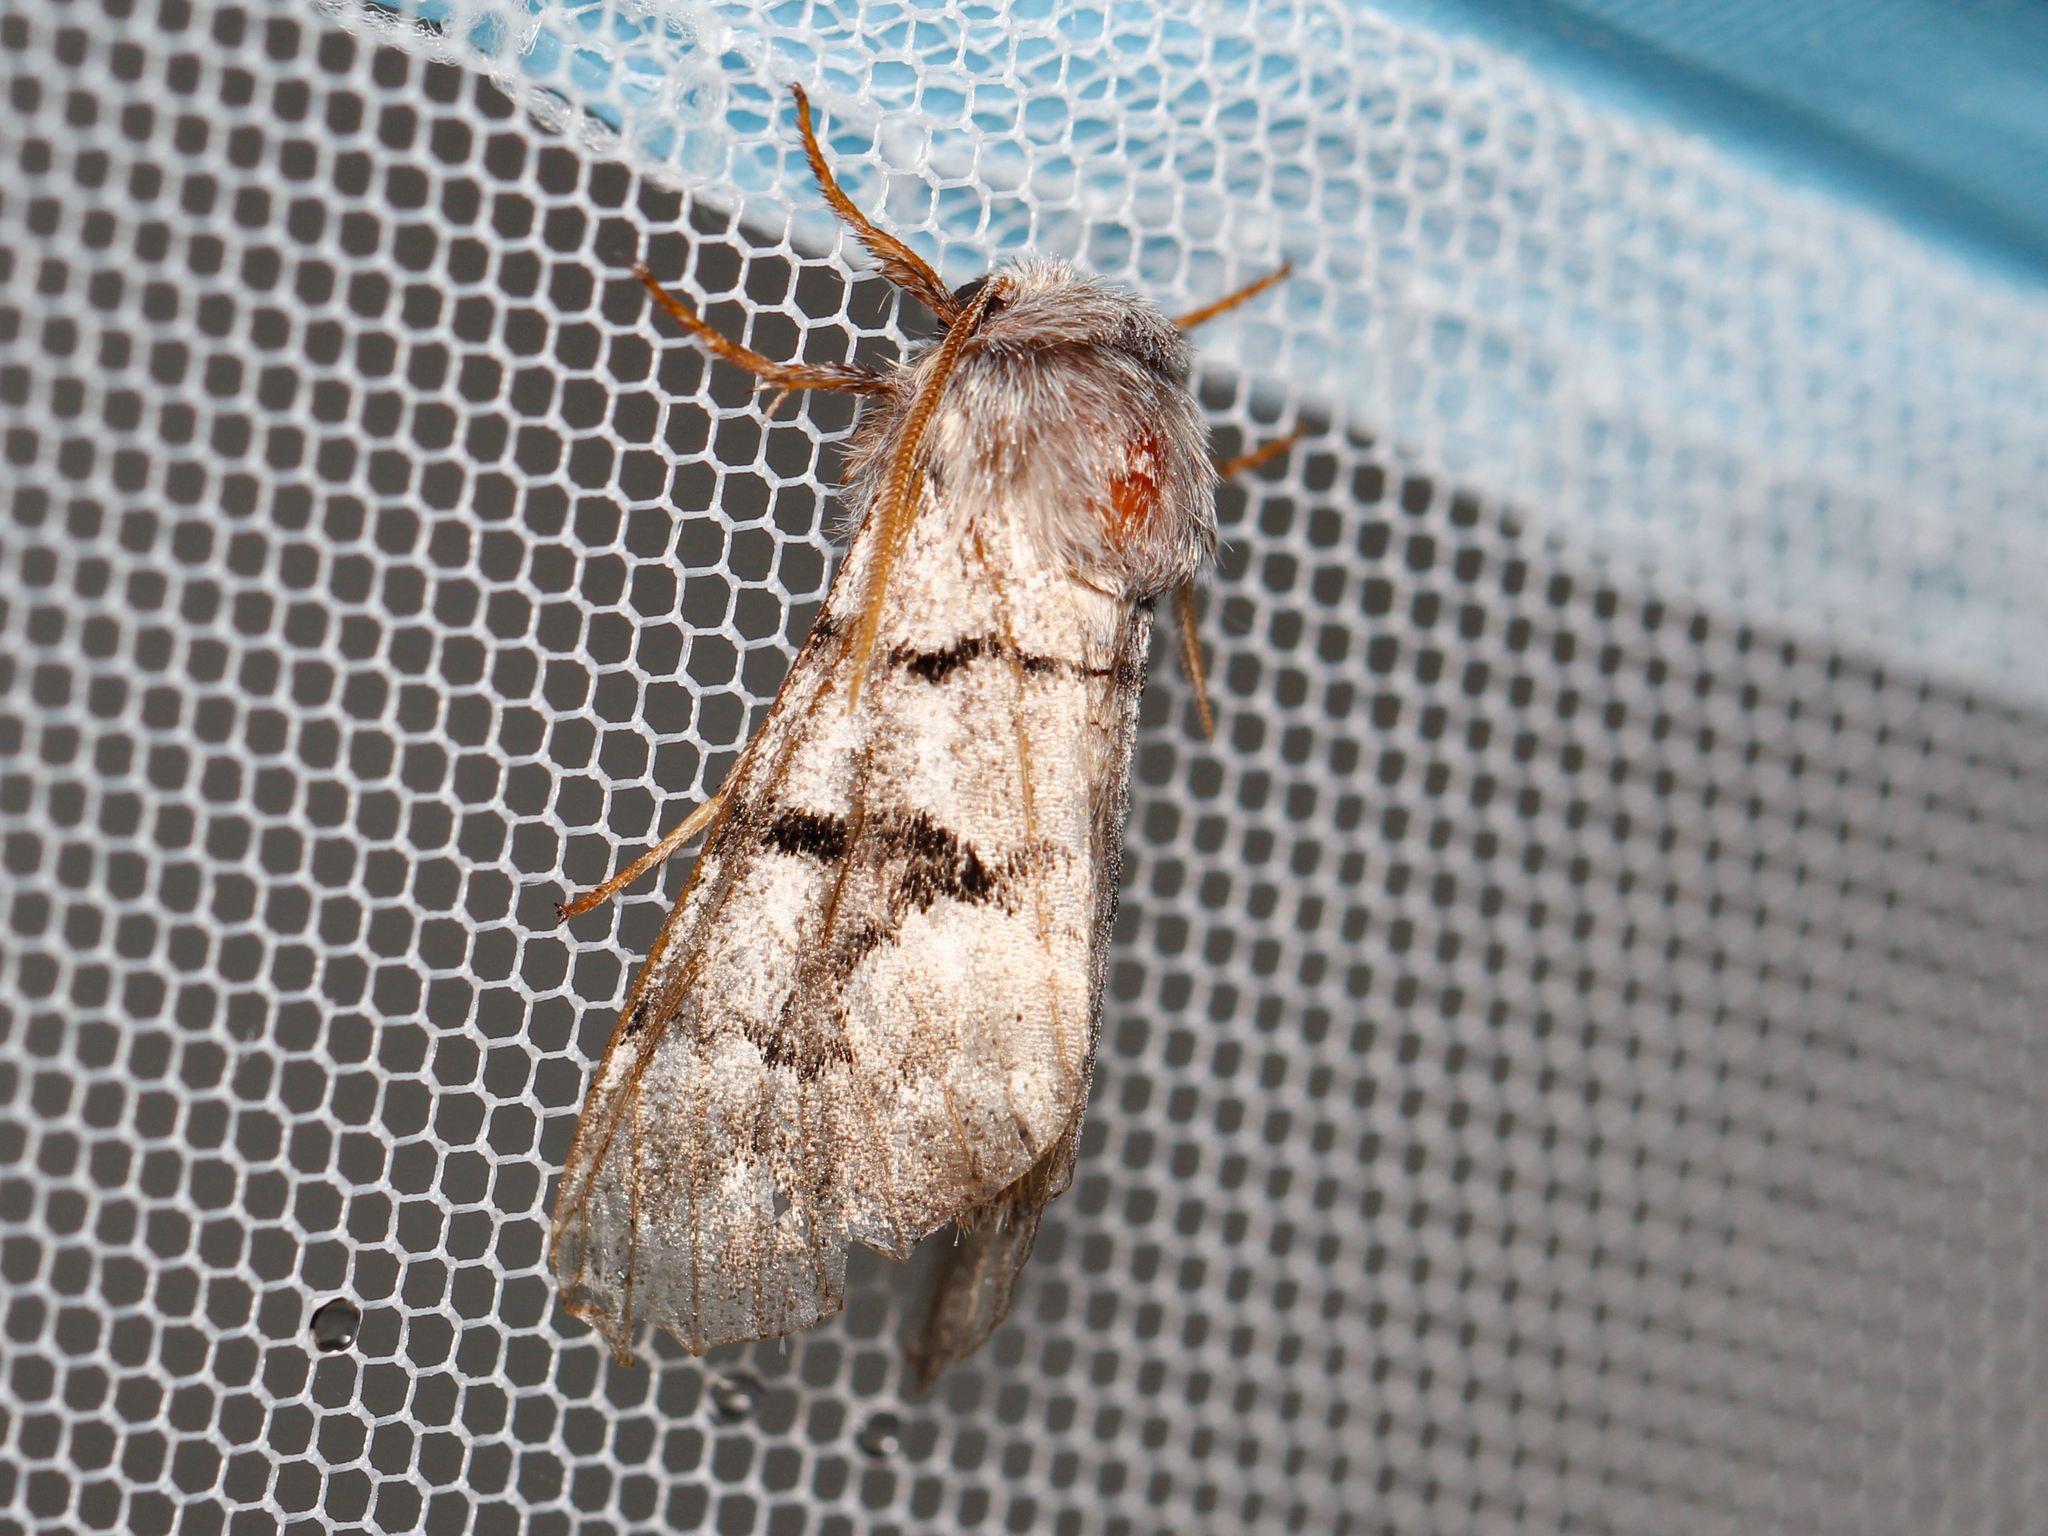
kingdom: Animalia
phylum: Arthropoda
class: Insecta
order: Lepidoptera
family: Noctuidae
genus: Panthea
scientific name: Panthea furcilla
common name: Eastern panthea moth
